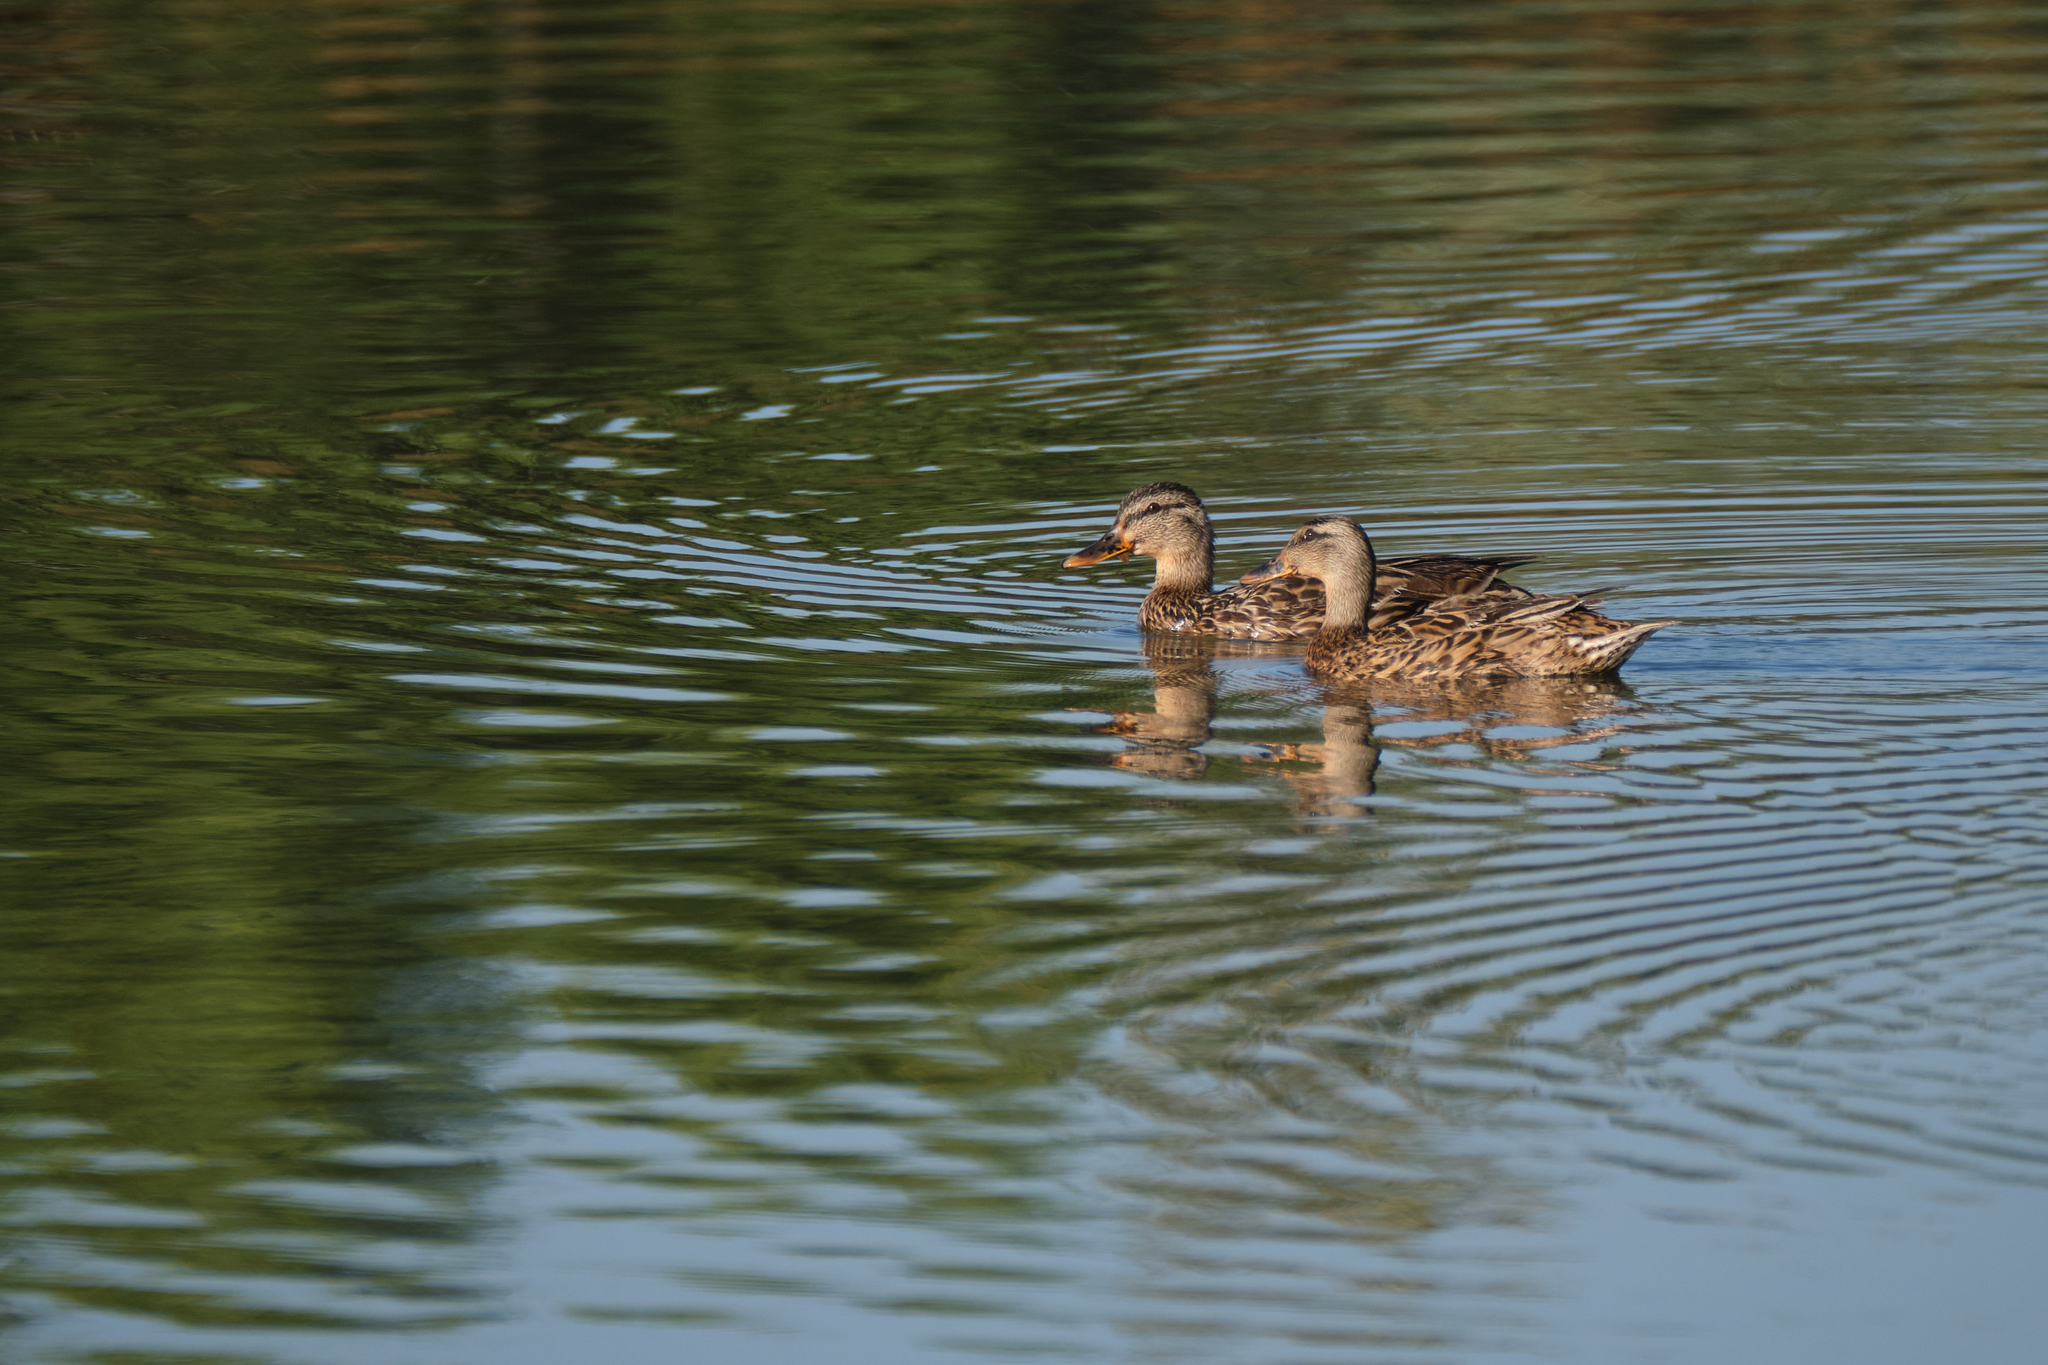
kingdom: Animalia
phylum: Chordata
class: Aves
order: Anseriformes
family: Anatidae
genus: Anas
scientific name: Anas platyrhynchos
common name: Mallard
